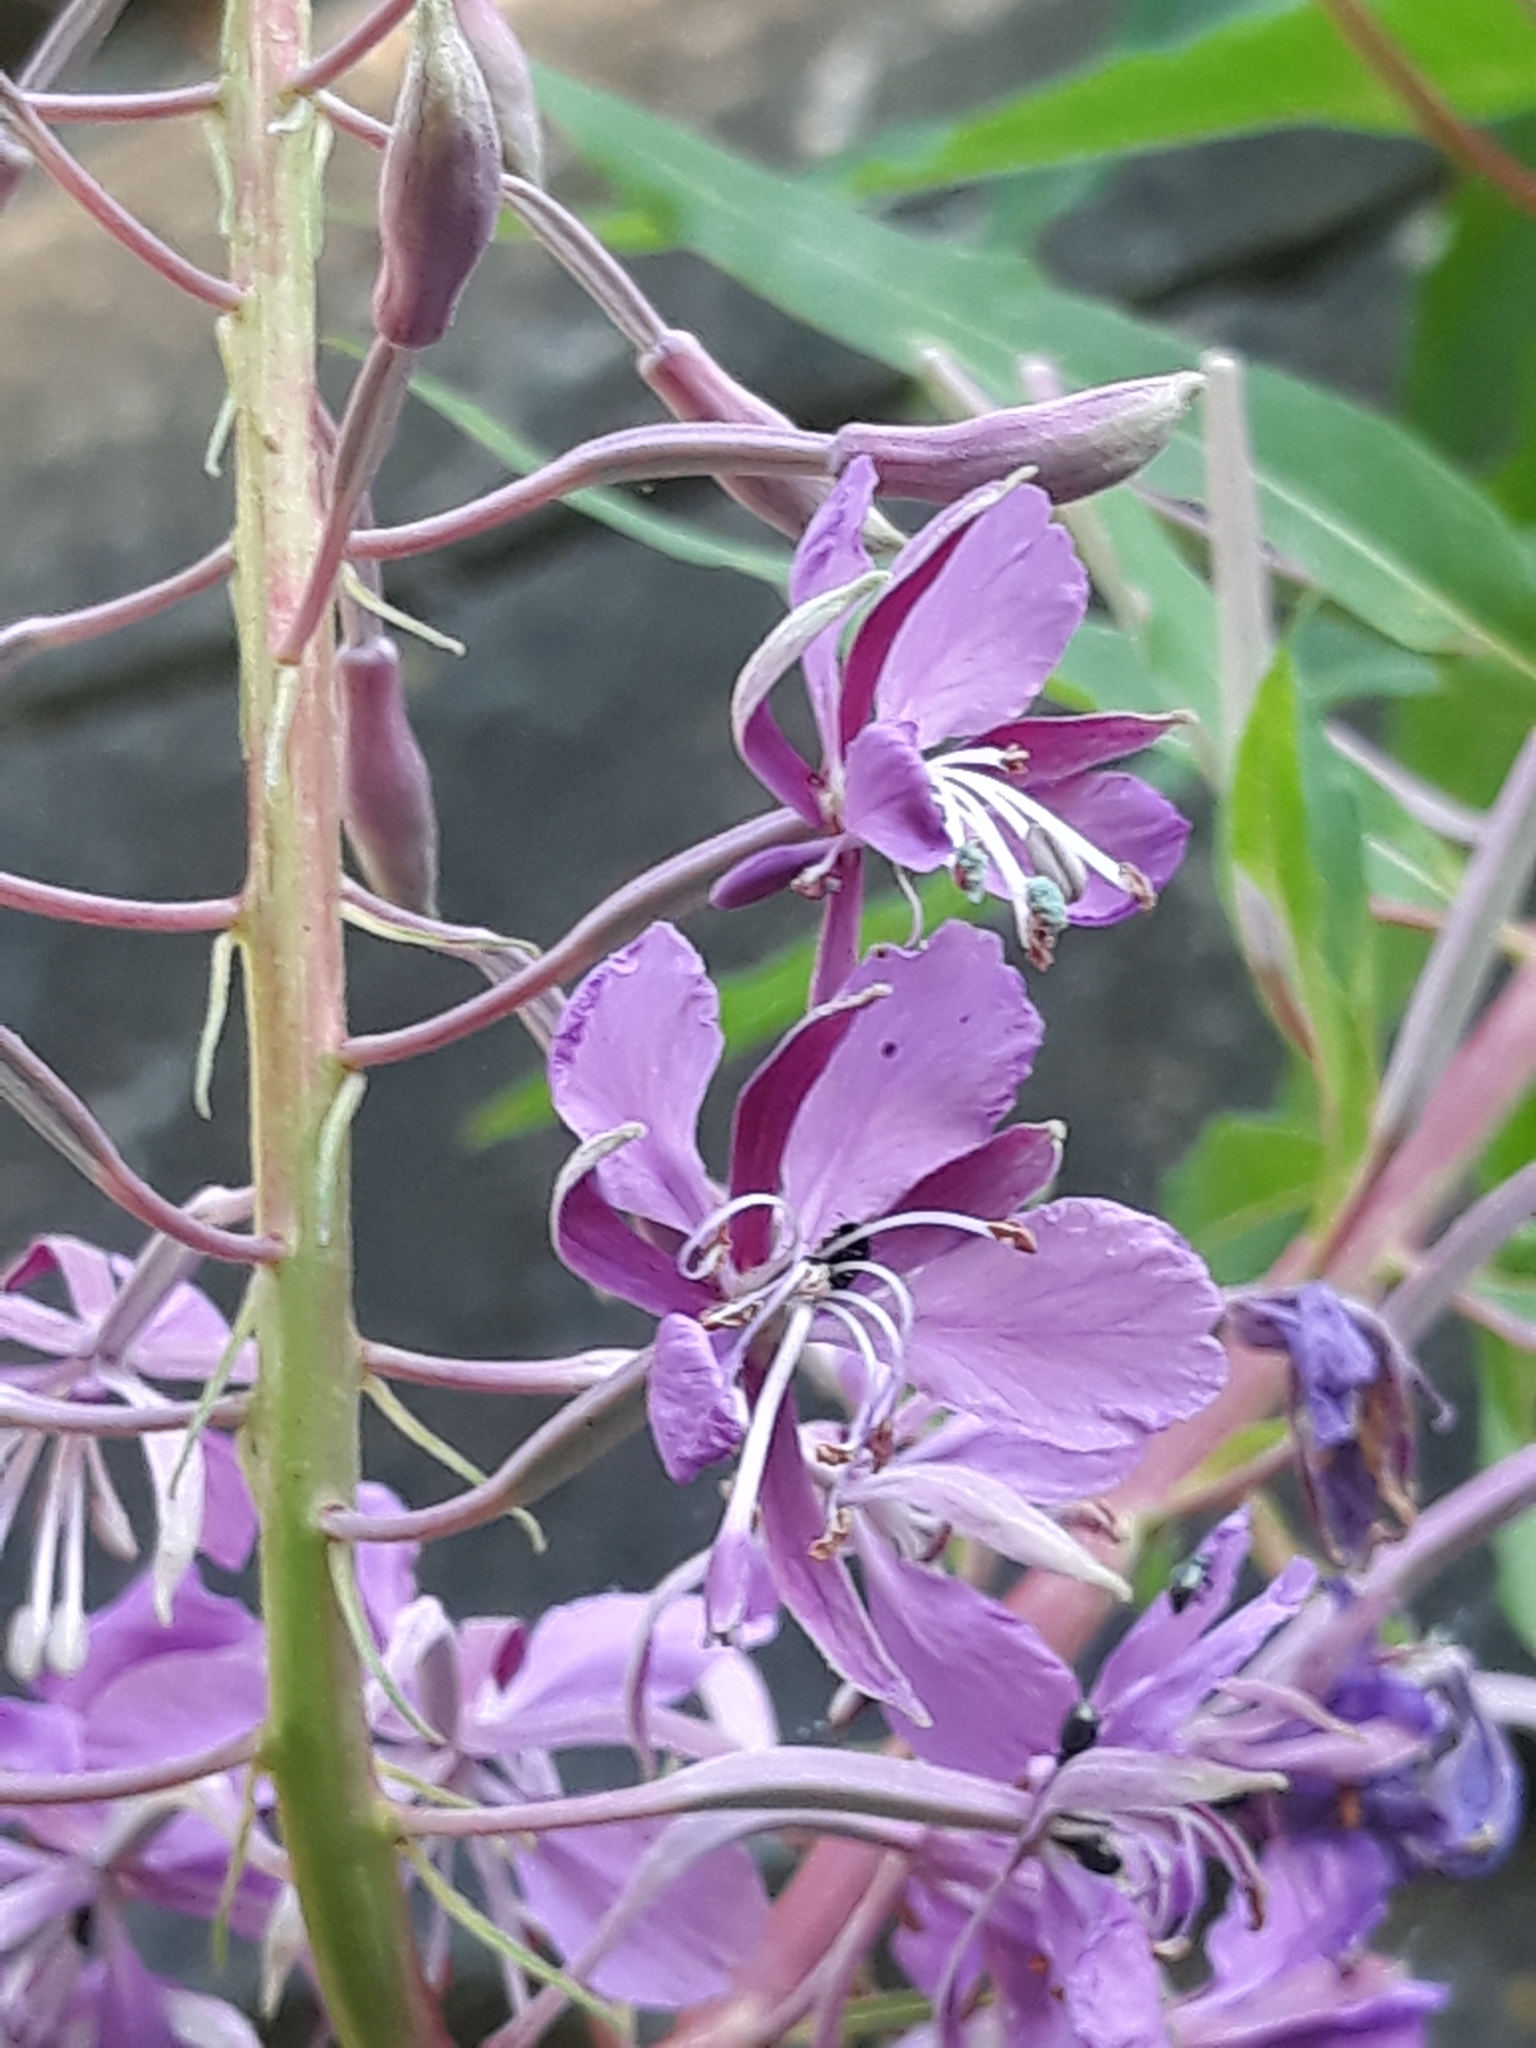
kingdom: Plantae
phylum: Tracheophyta
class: Magnoliopsida
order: Myrtales
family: Onagraceae
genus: Chamaenerion
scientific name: Chamaenerion angustifolium
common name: Fireweed
